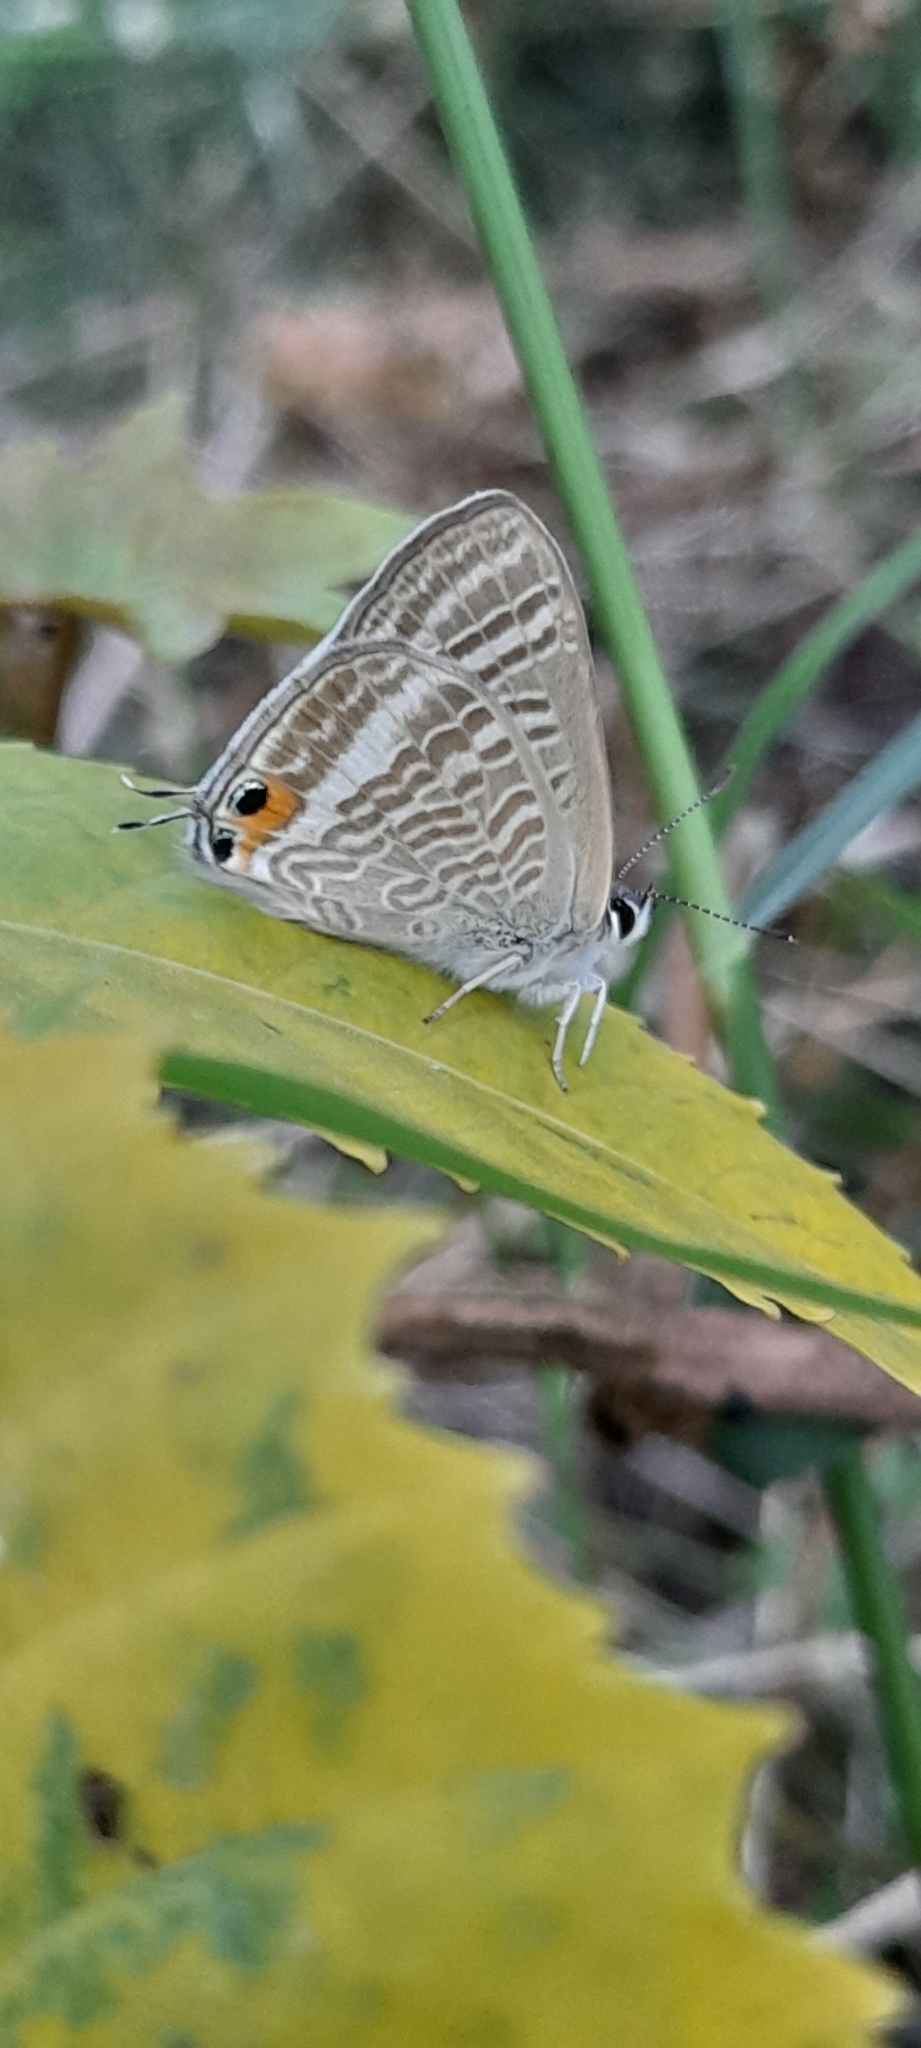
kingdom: Animalia
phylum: Arthropoda
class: Insecta
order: Lepidoptera
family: Lycaenidae
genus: Lampides
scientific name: Lampides boeticus
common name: Long-tailed blue
